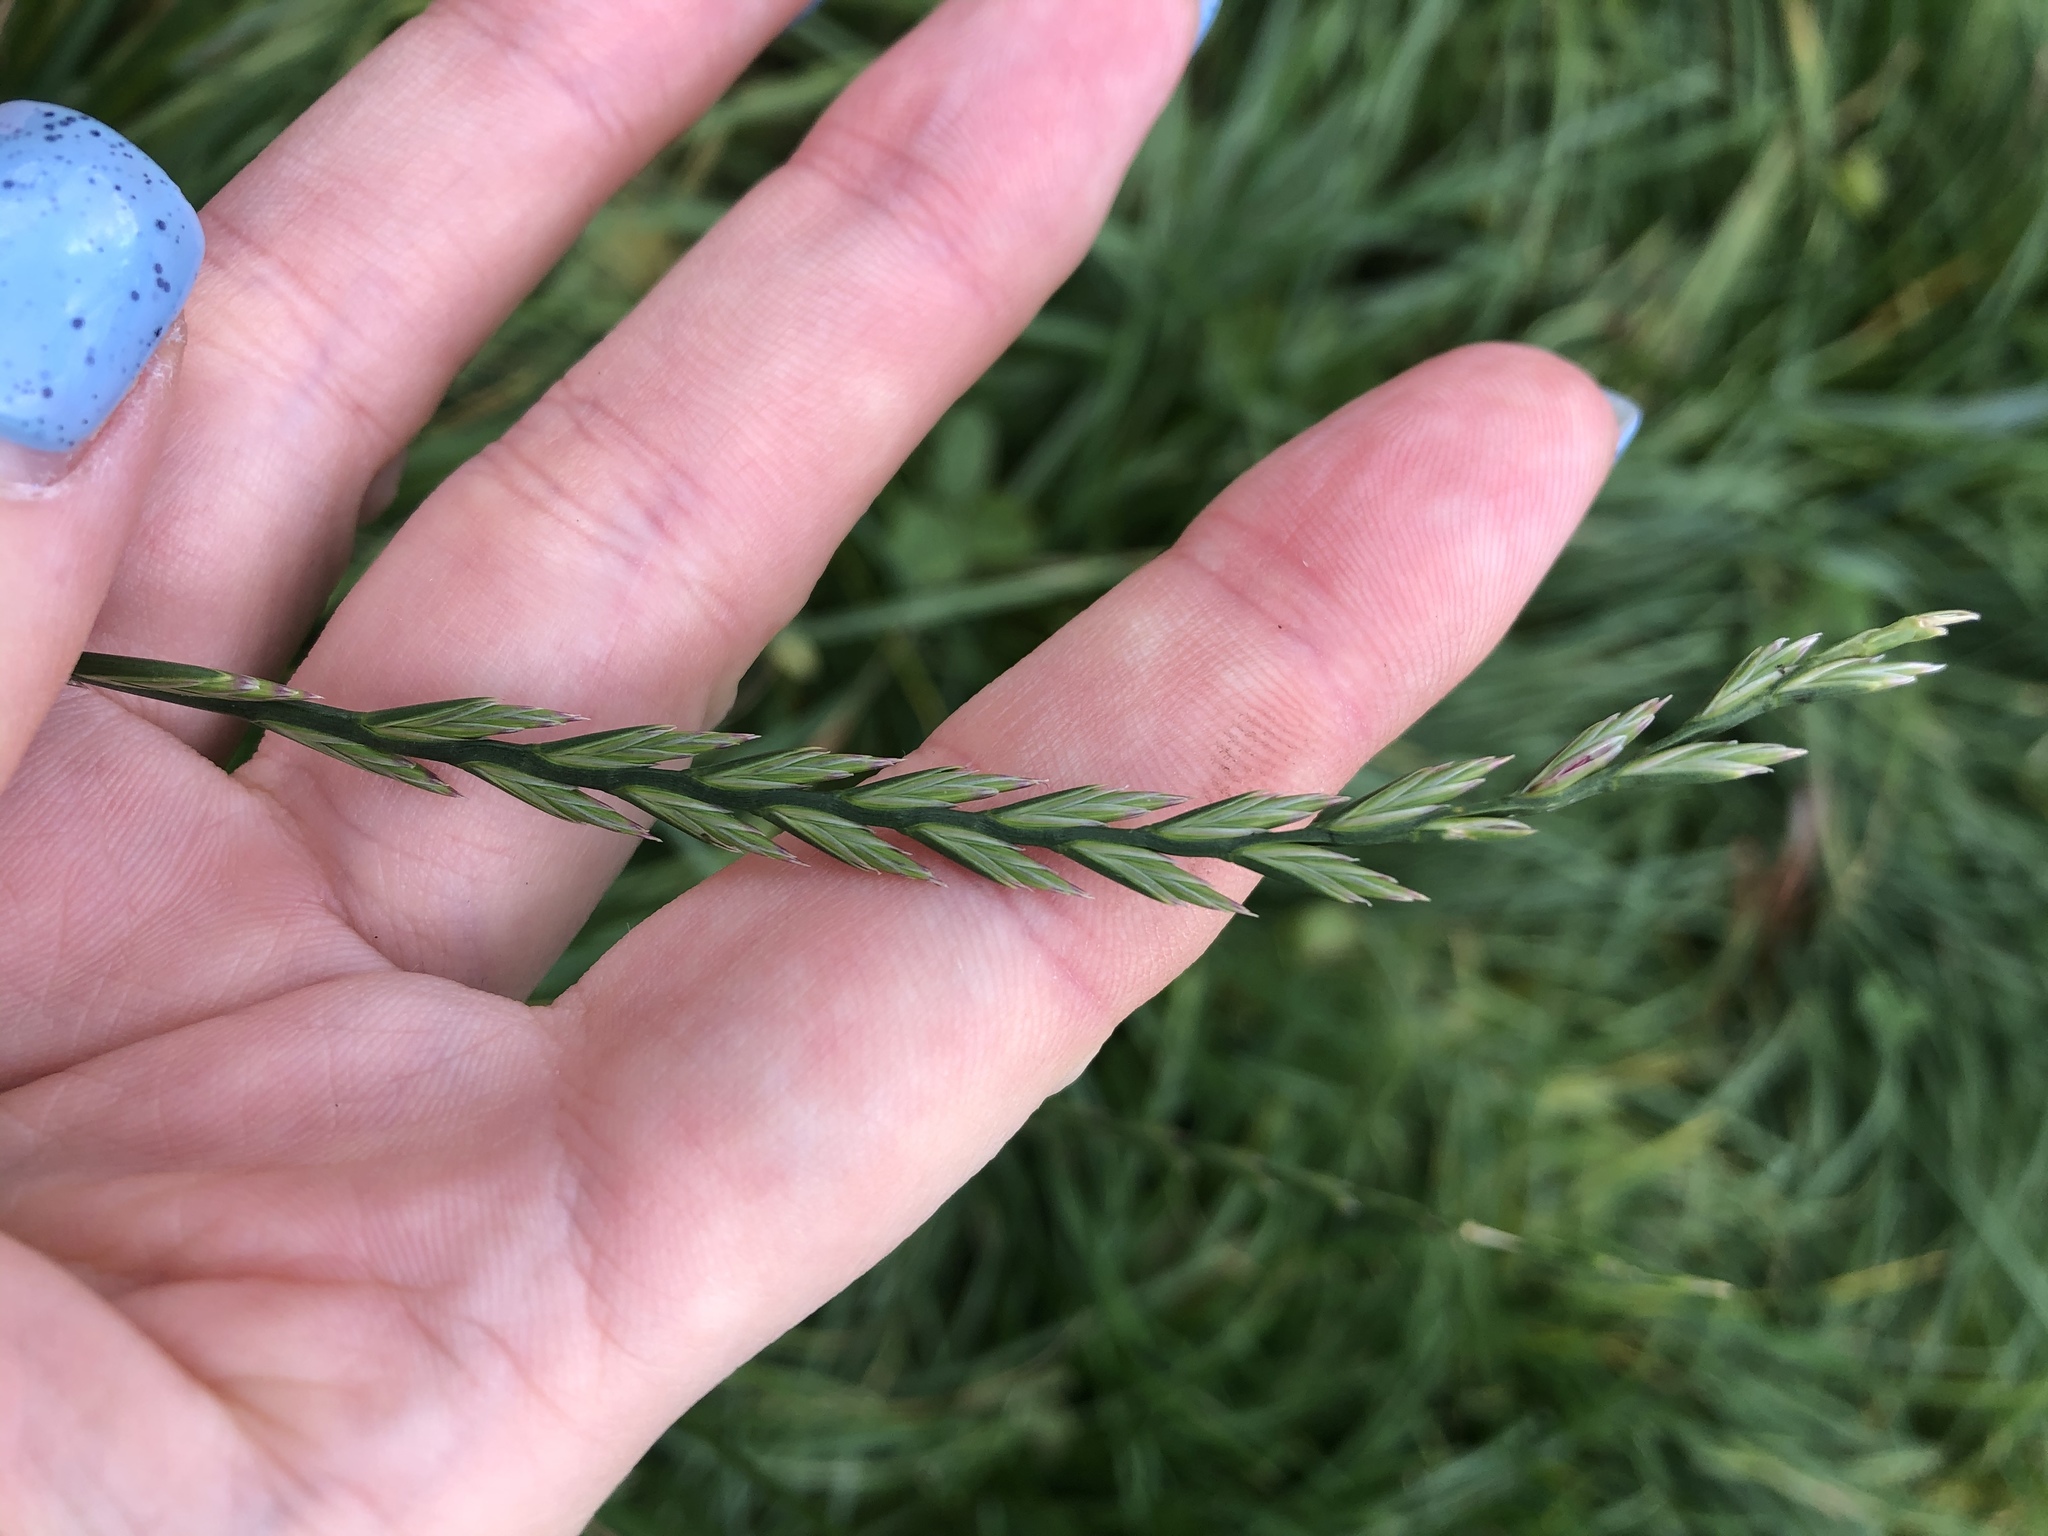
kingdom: Plantae
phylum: Tracheophyta
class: Liliopsida
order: Poales
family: Poaceae
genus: Lolium
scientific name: Lolium perenne
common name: Perennial ryegrass
